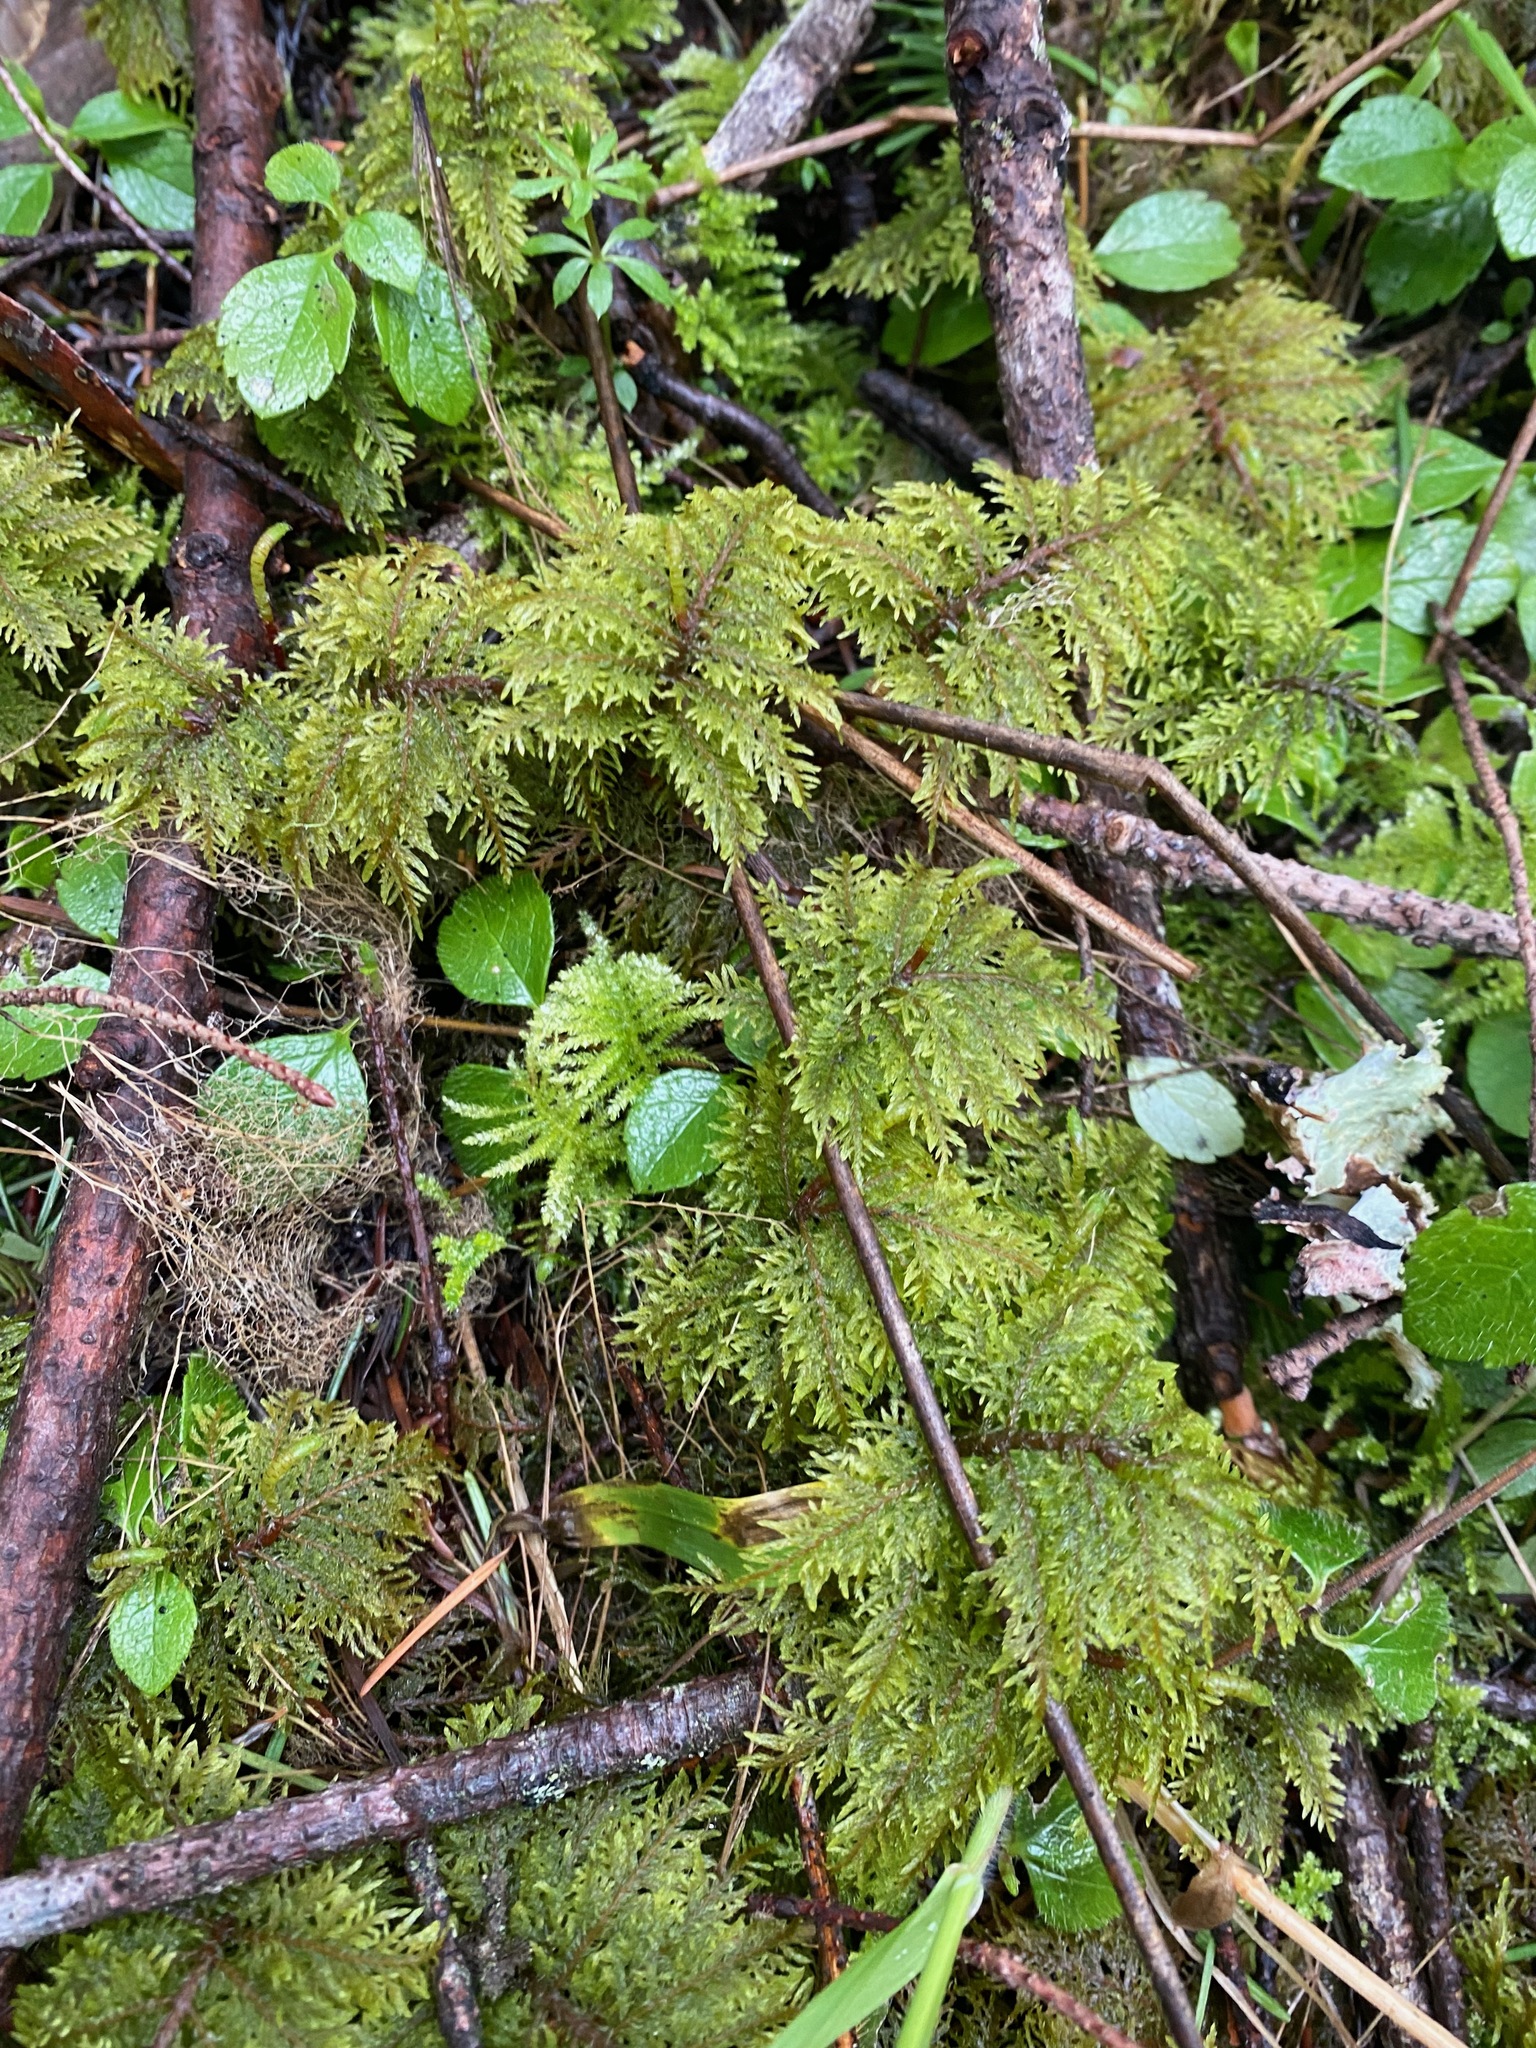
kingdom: Plantae
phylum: Bryophyta
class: Bryopsida
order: Hypnales
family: Hylocomiaceae
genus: Hylocomium
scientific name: Hylocomium splendens
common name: Stairstep moss
